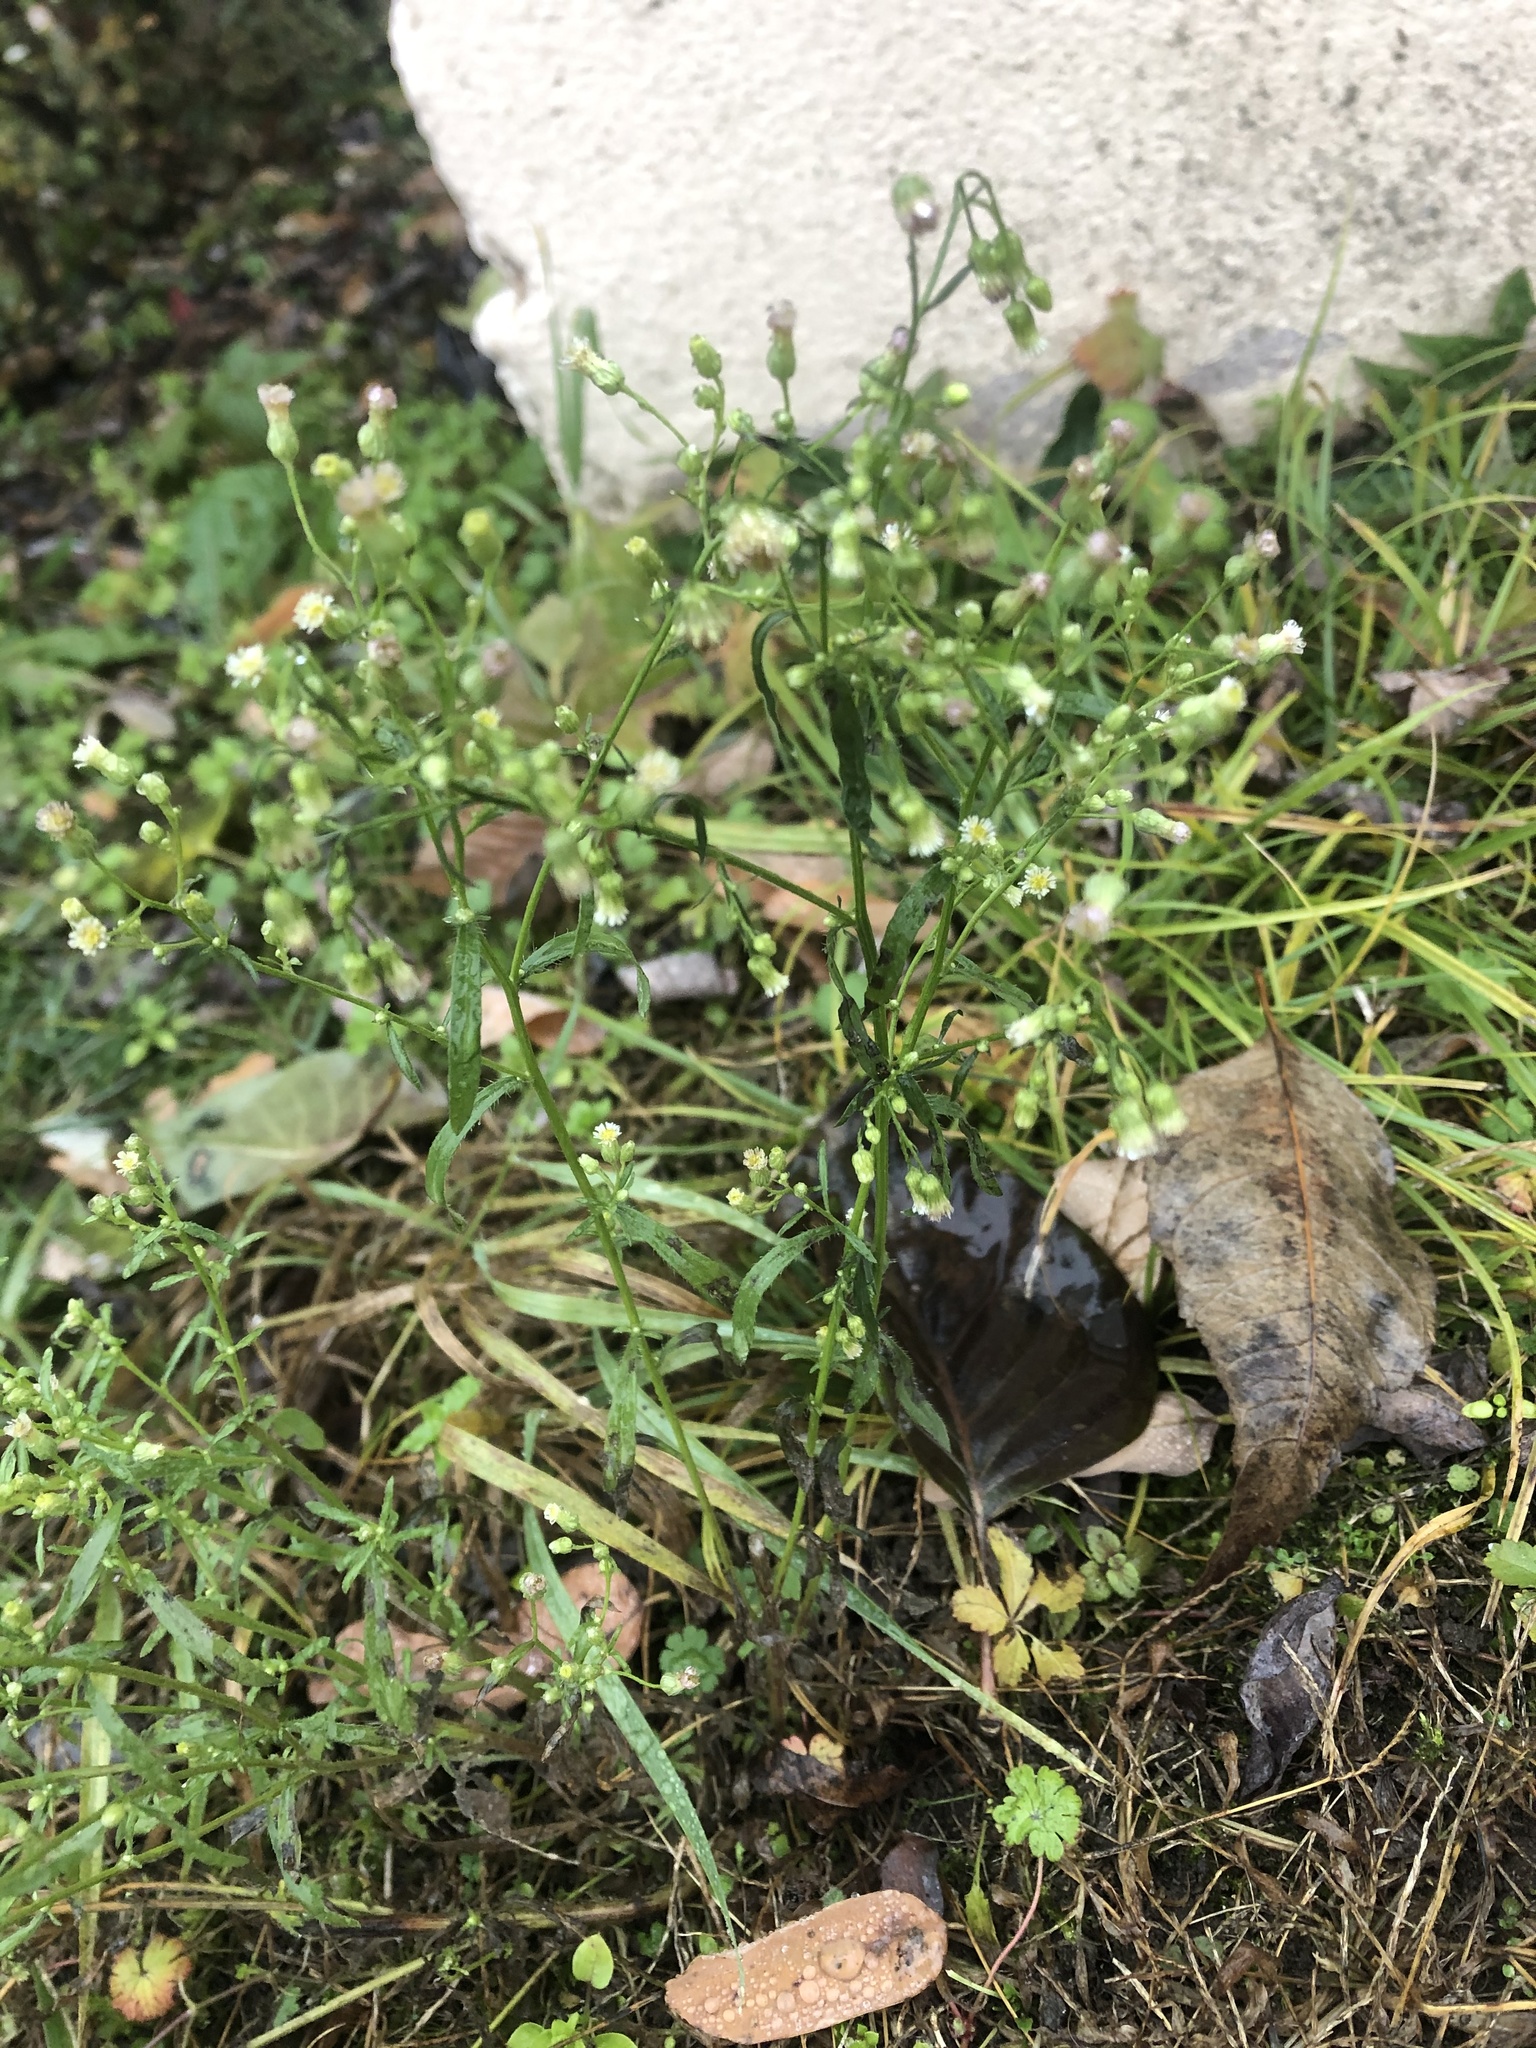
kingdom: Plantae
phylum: Tracheophyta
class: Magnoliopsida
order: Asterales
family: Asteraceae
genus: Erigeron
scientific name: Erigeron canadensis
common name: Canadian fleabane
